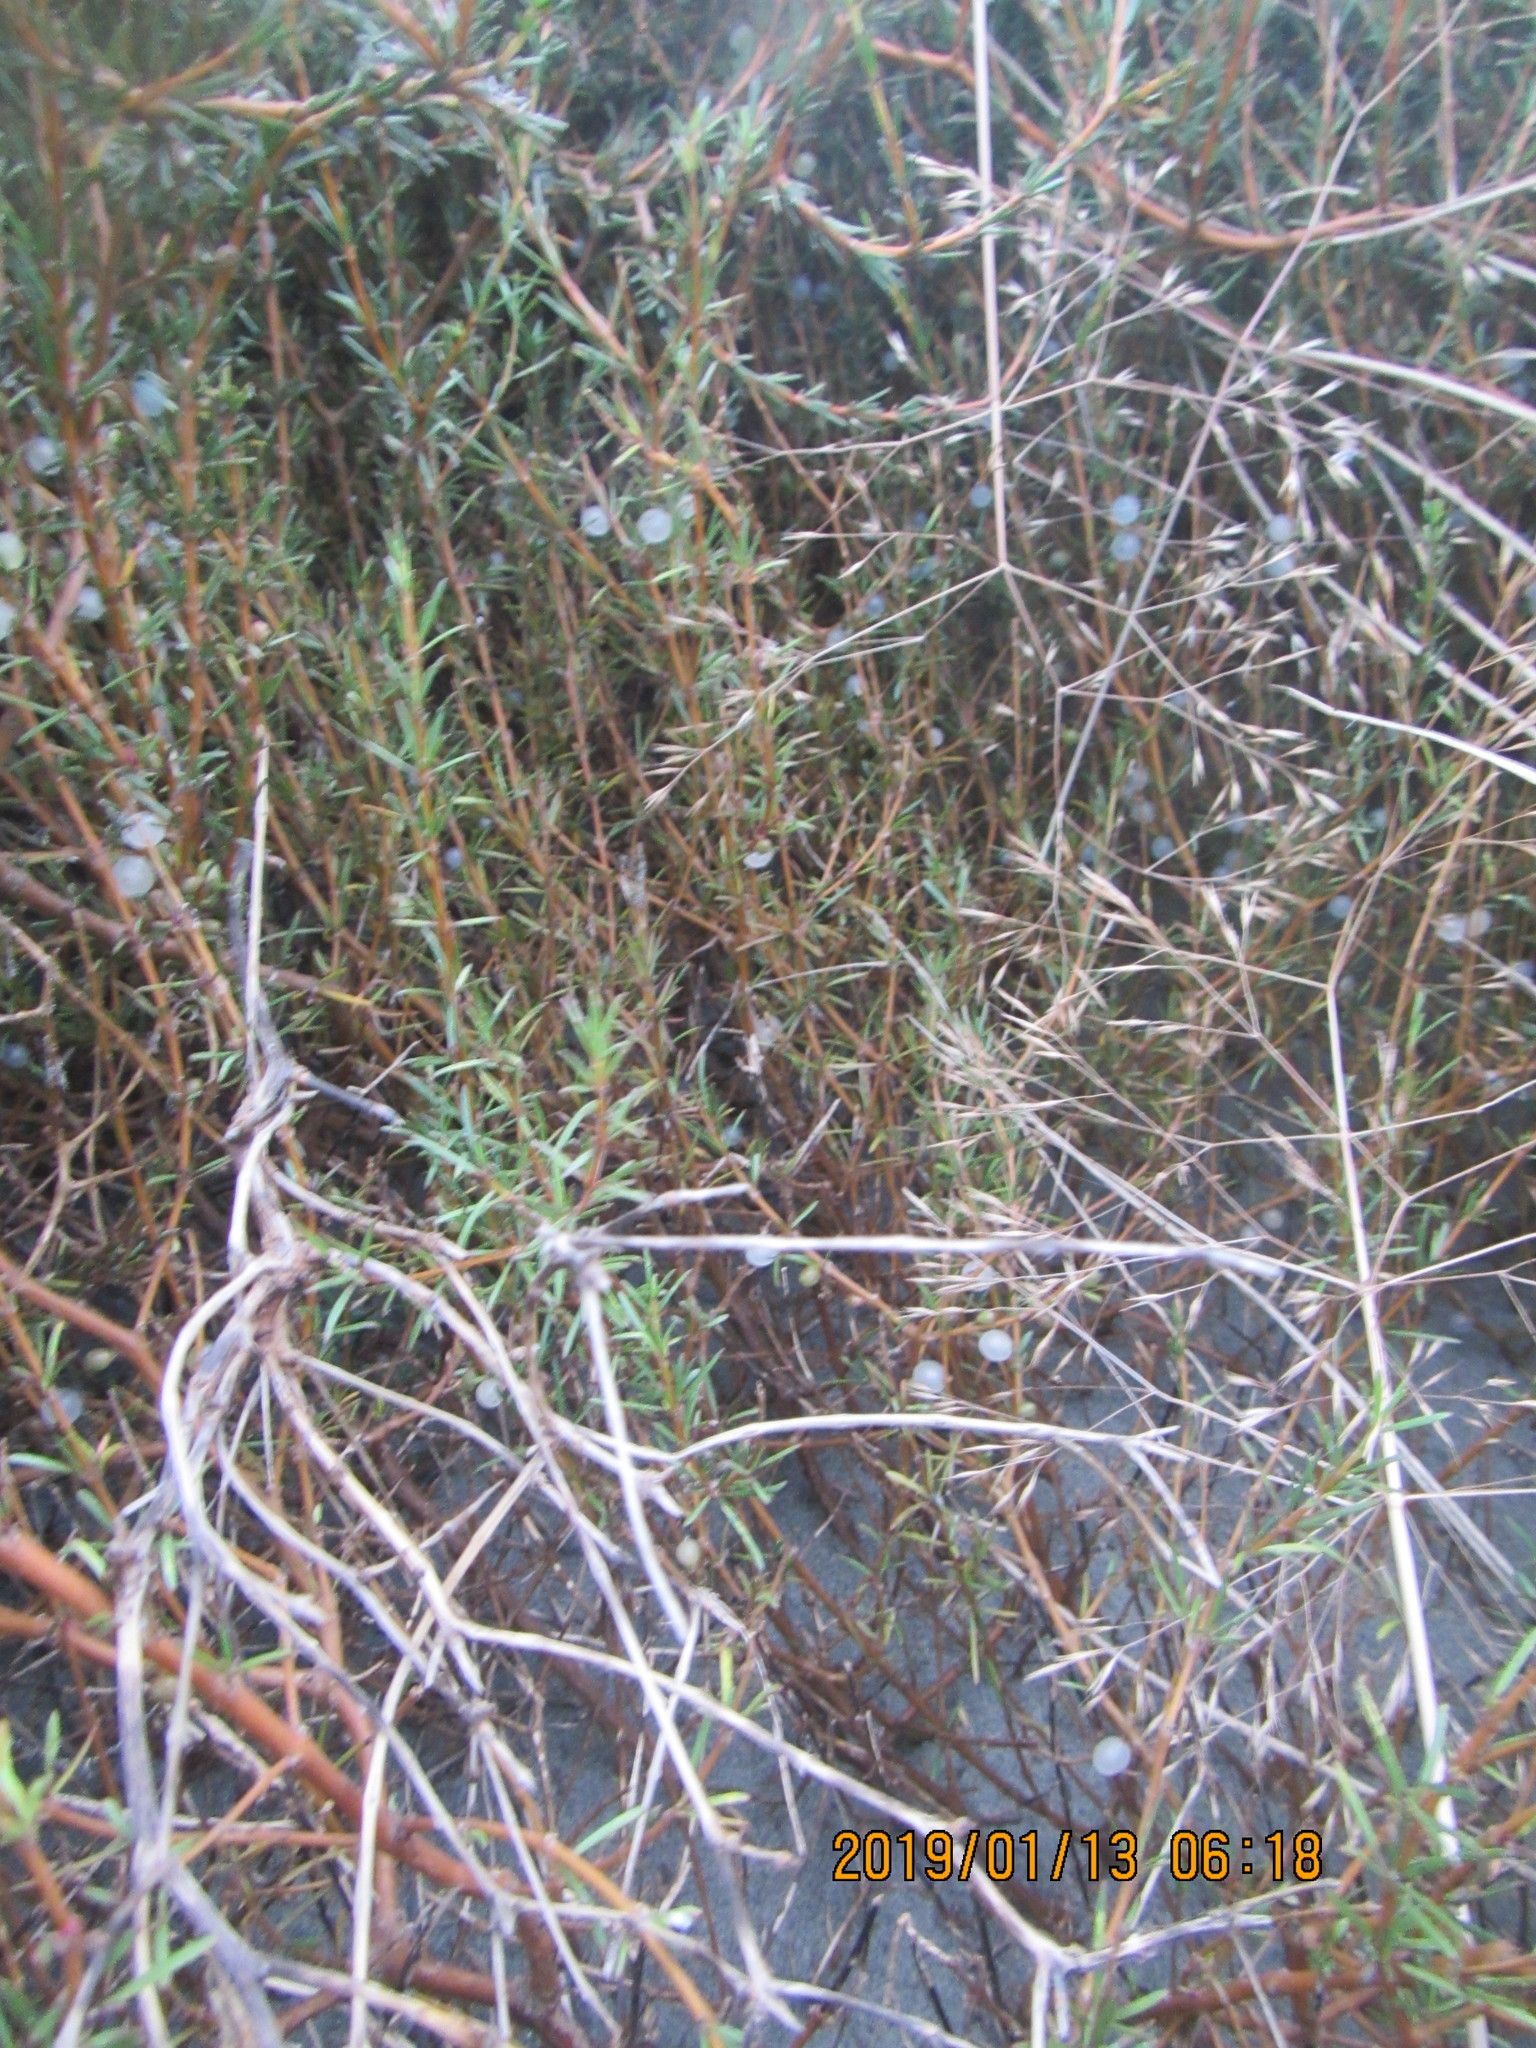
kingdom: Plantae
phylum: Tracheophyta
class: Magnoliopsida
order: Gentianales
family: Rubiaceae
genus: Coprosma
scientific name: Coprosma acerosa
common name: Sand coprosma
